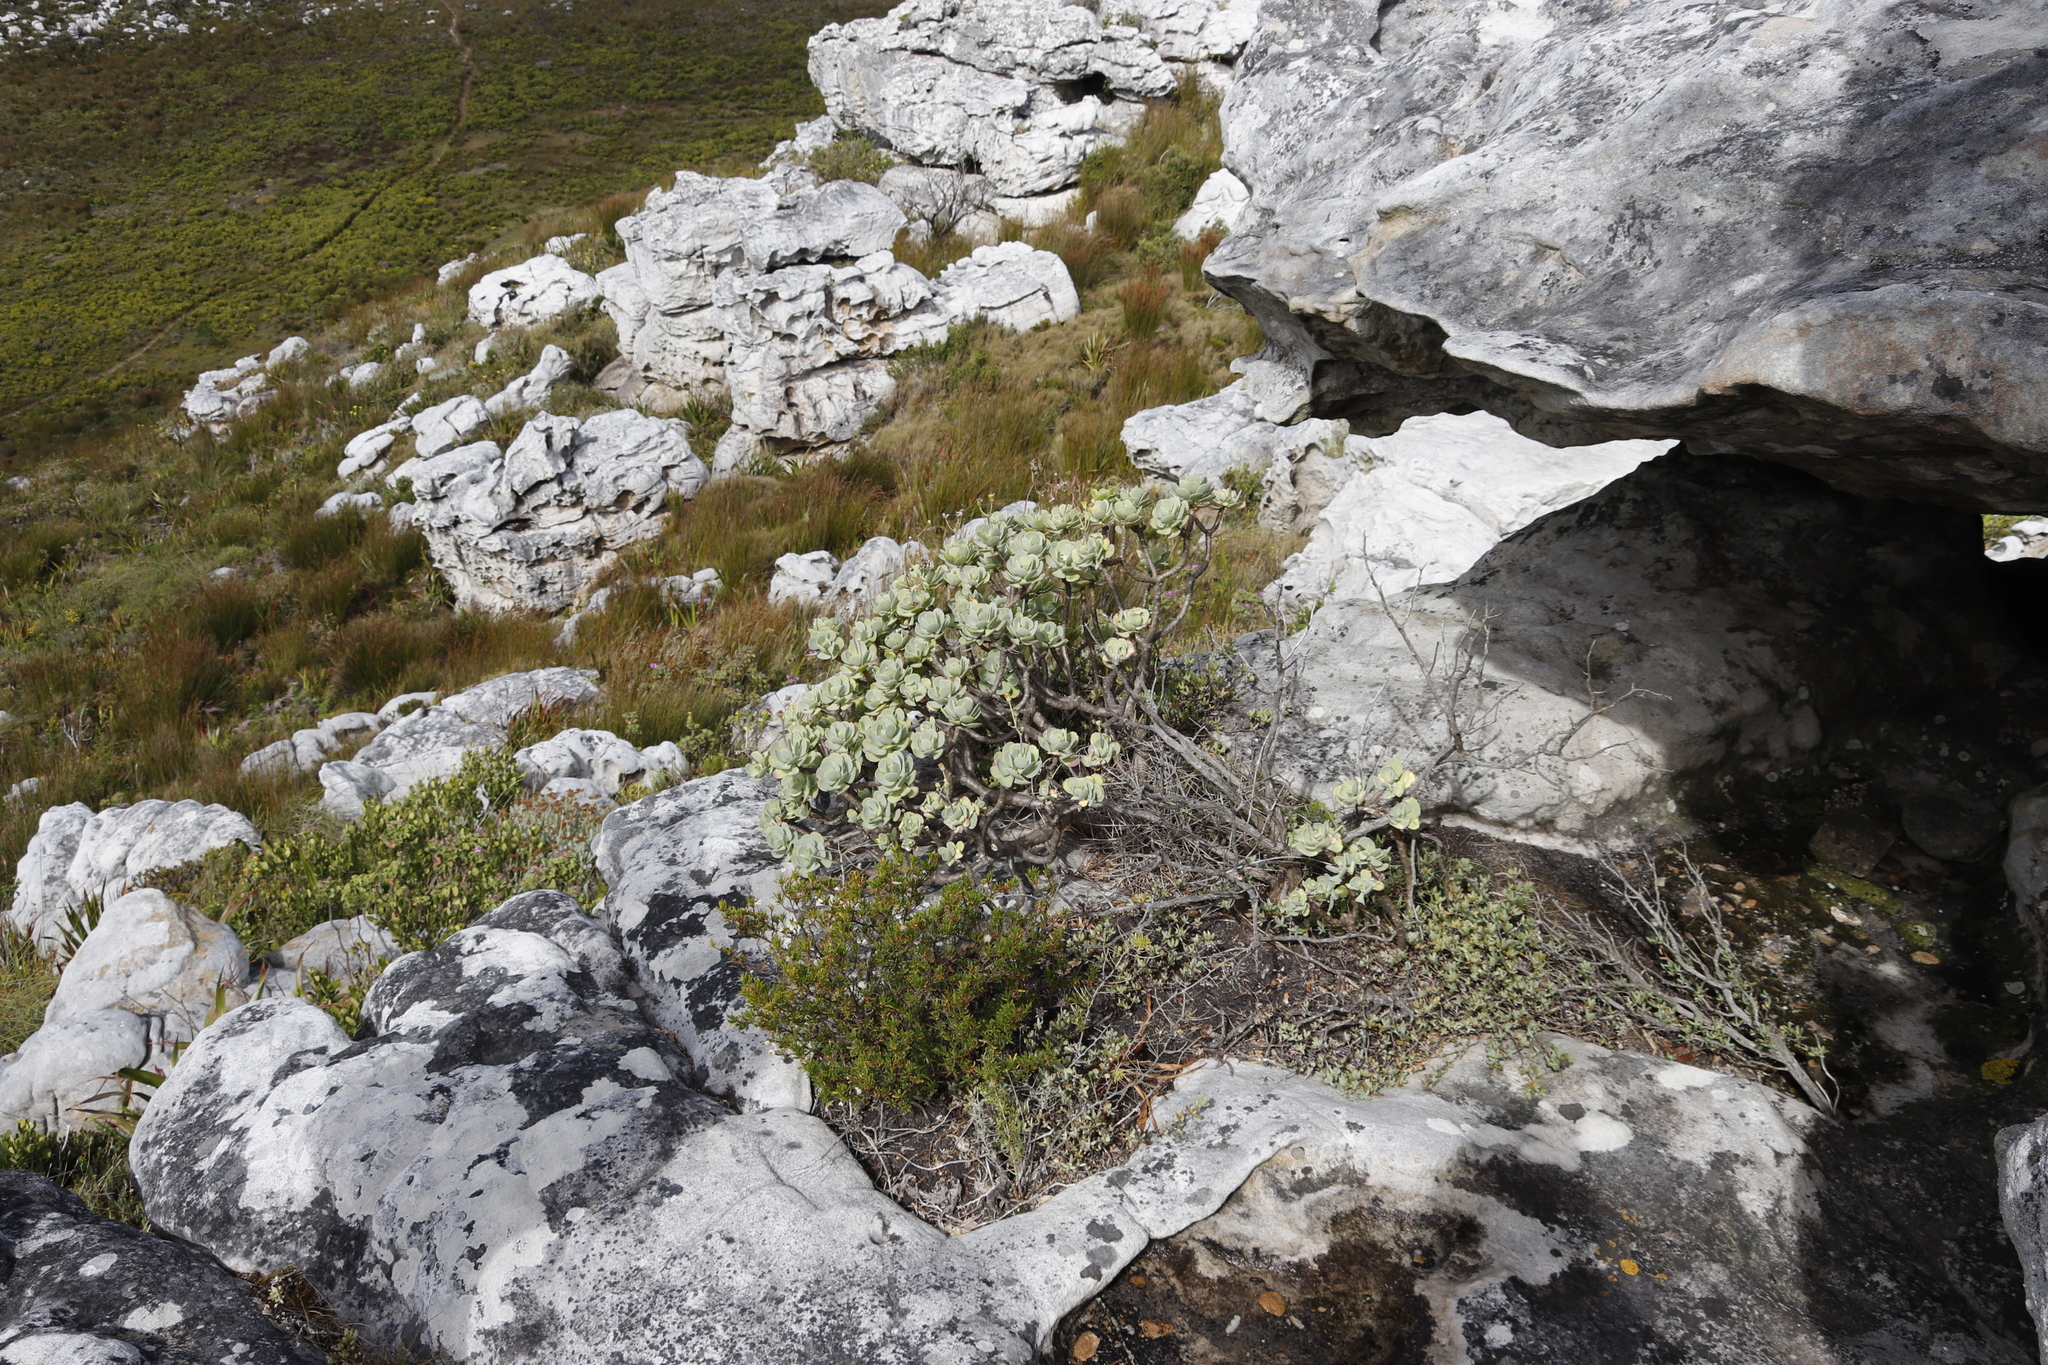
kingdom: Plantae
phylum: Tracheophyta
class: Magnoliopsida
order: Asterales
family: Asteraceae
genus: Othonna
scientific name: Othonna dentata
